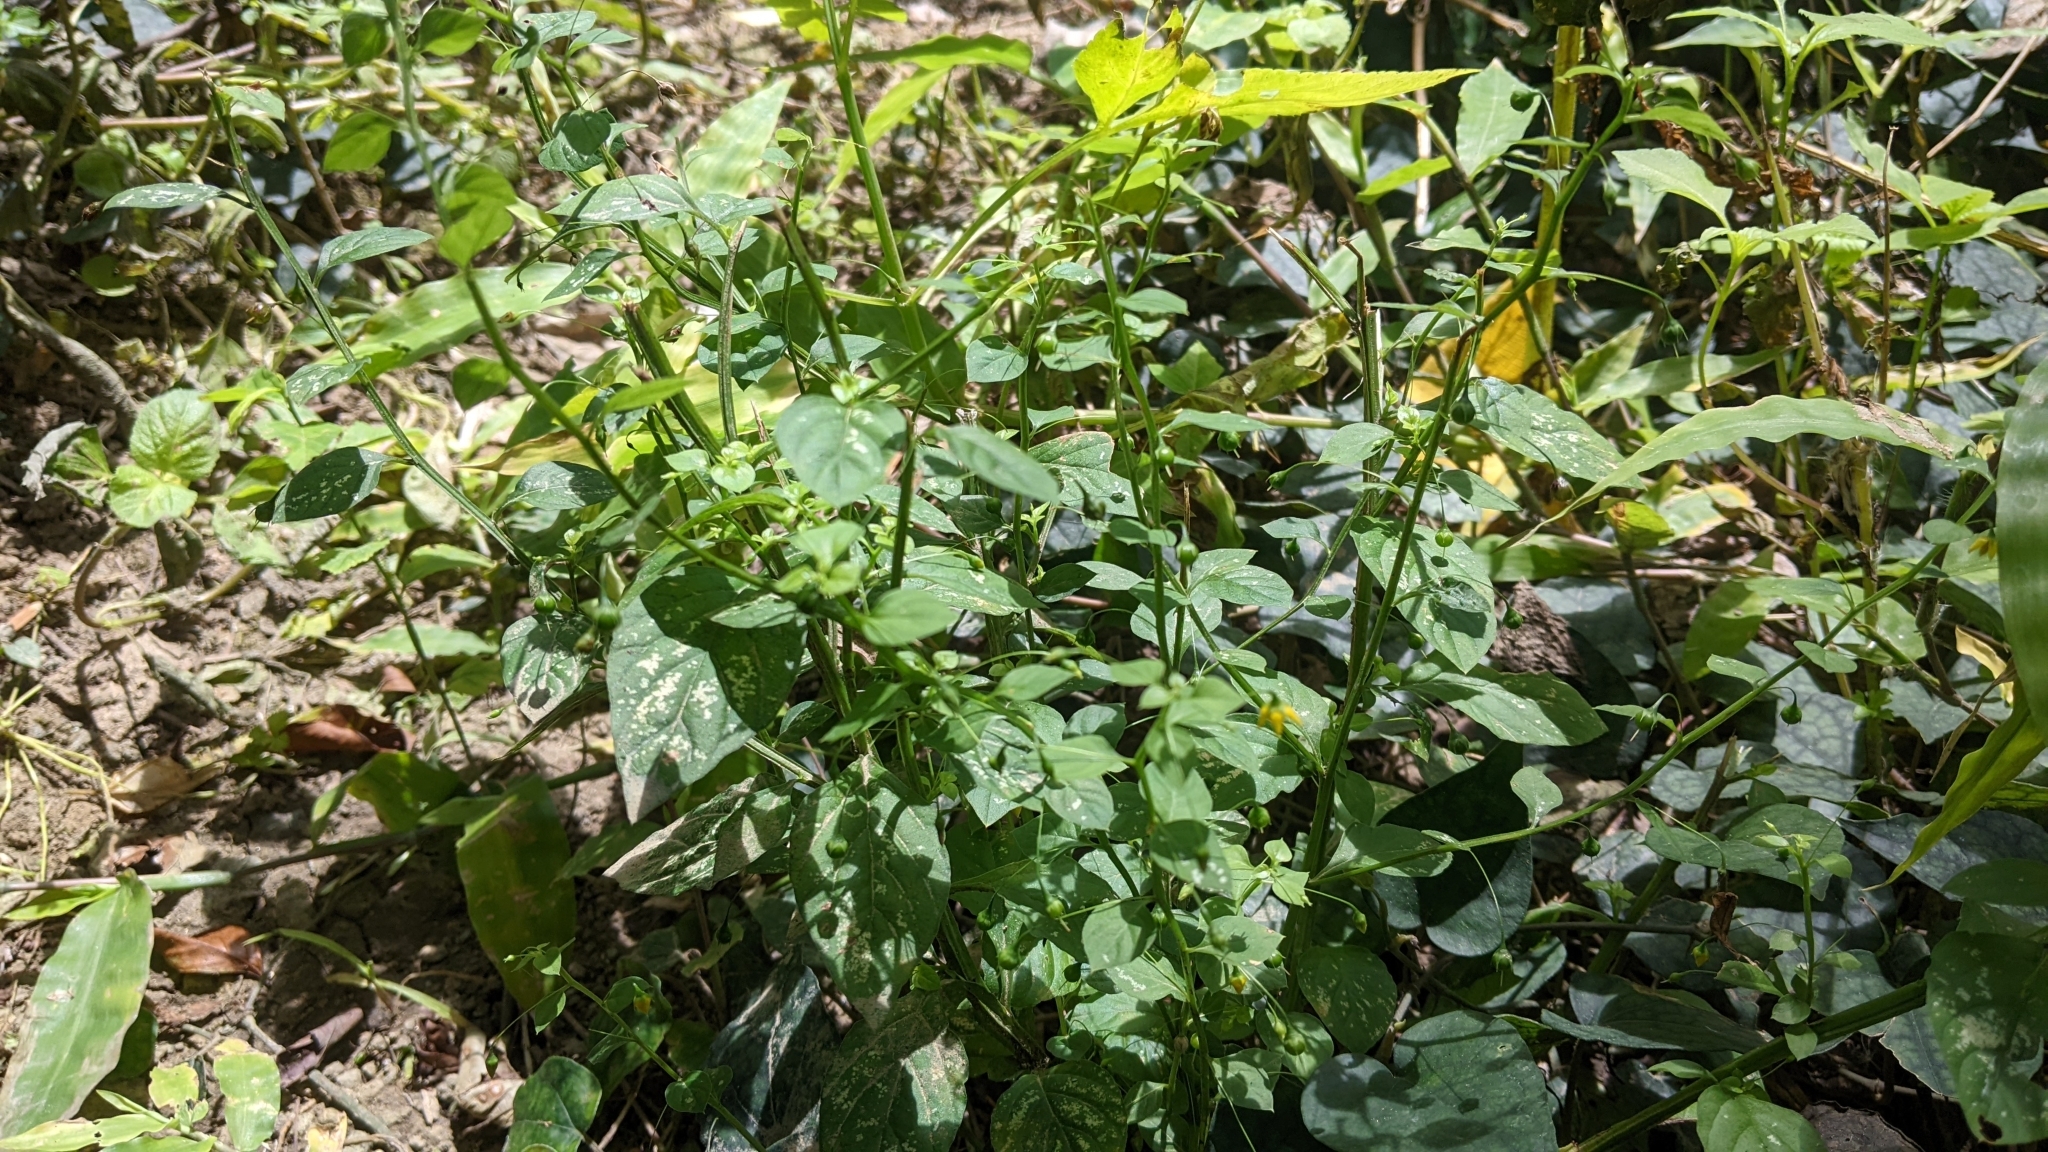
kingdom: Plantae
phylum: Tracheophyta
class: Magnoliopsida
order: Ericales
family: Primulaceae
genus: Lysimachia
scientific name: Lysimachia capillipes
